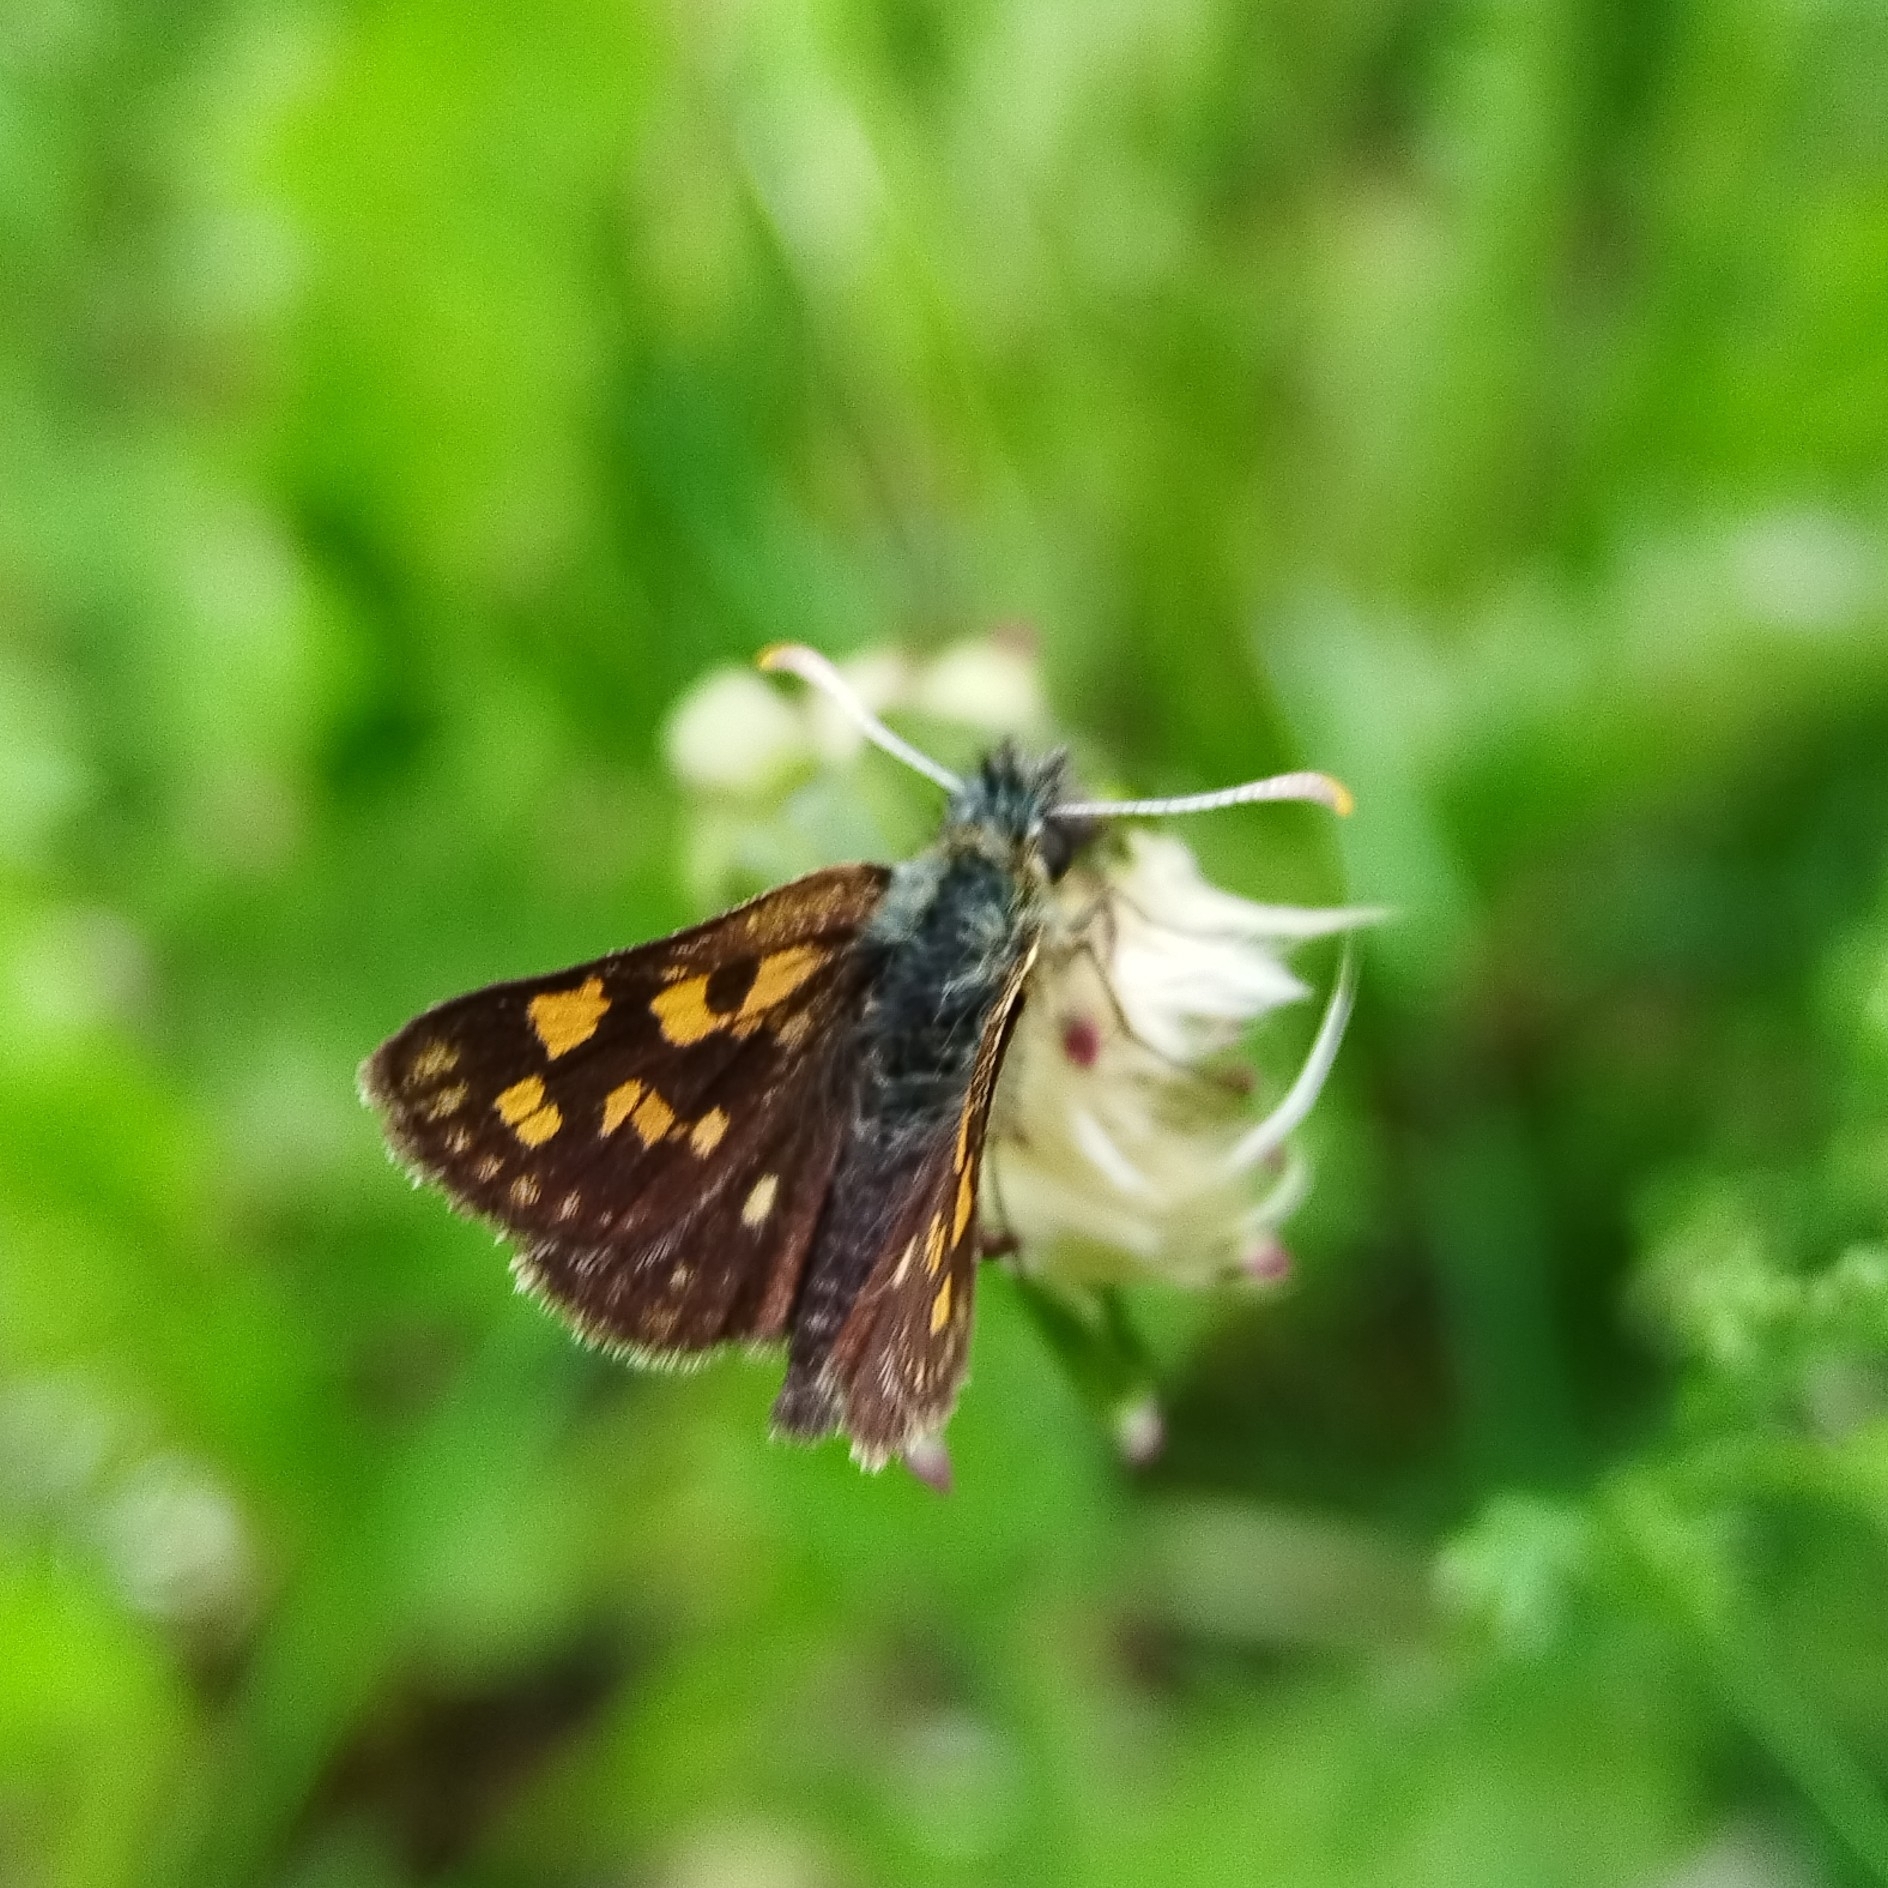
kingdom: Animalia
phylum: Arthropoda
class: Insecta
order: Lepidoptera
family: Hesperiidae
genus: Carterocephalus
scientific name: Carterocephalus palaemon
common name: Chequered skipper
